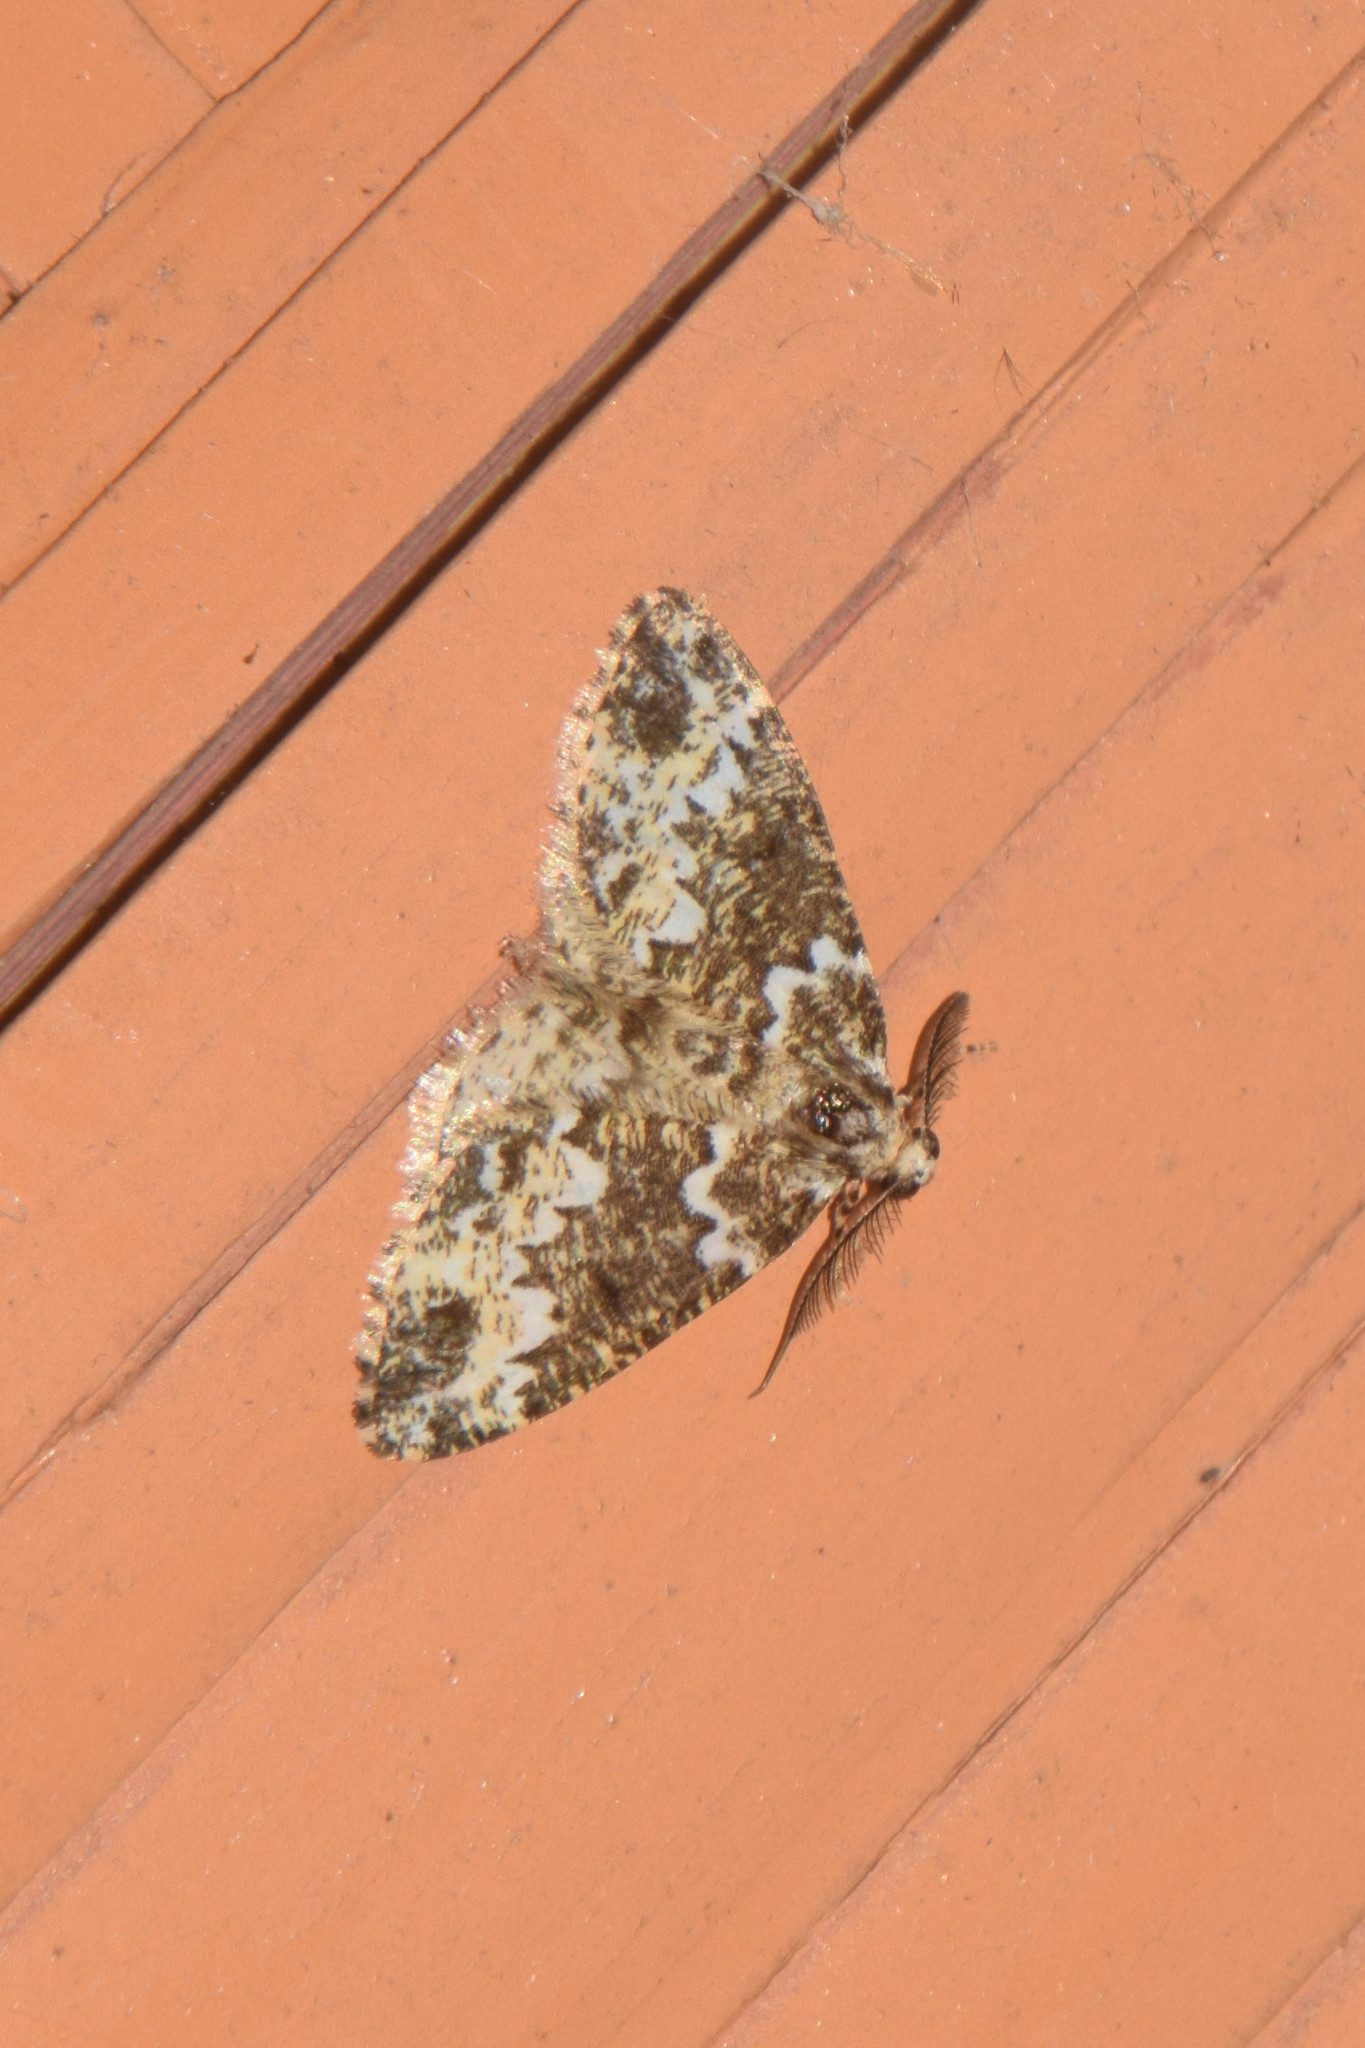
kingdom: Animalia
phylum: Arthropoda
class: Insecta
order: Lepidoptera
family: Geometridae
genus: Prochasma
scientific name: Prochasma dentilinea
